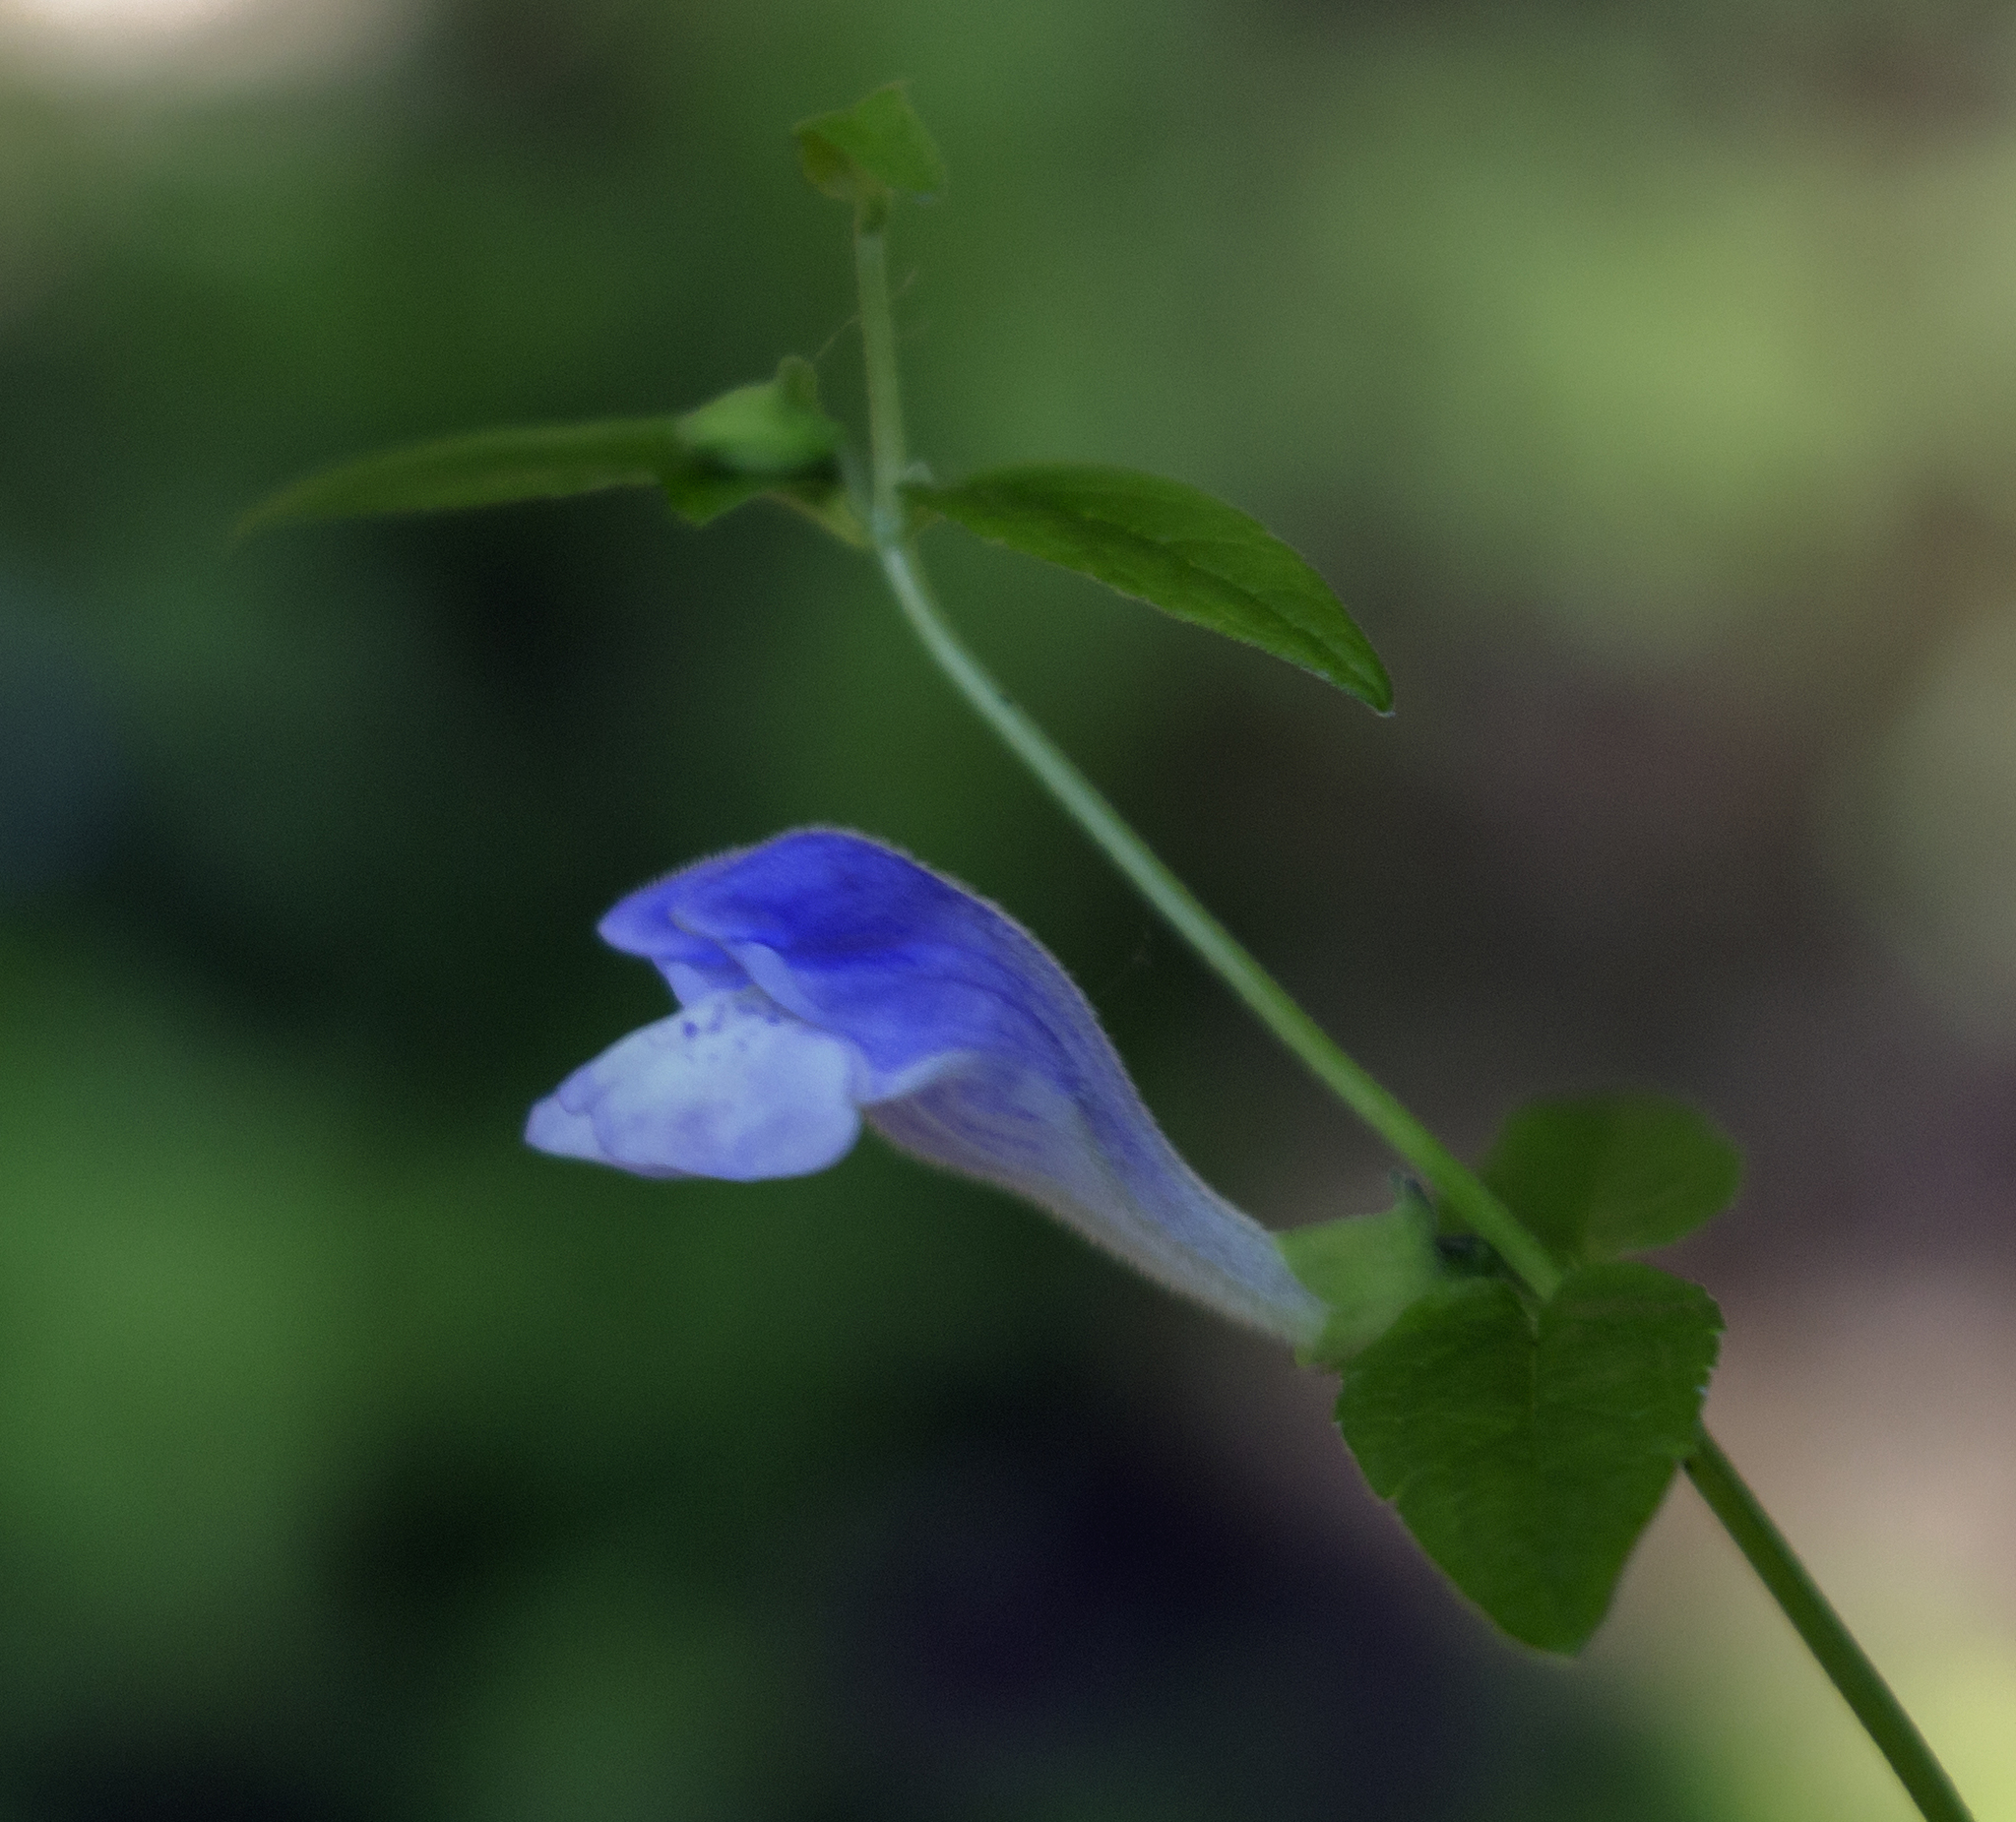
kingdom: Plantae
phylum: Tracheophyta
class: Magnoliopsida
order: Lamiales
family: Lamiaceae
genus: Scutellaria
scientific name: Scutellaria galericulata
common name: Skullcap
